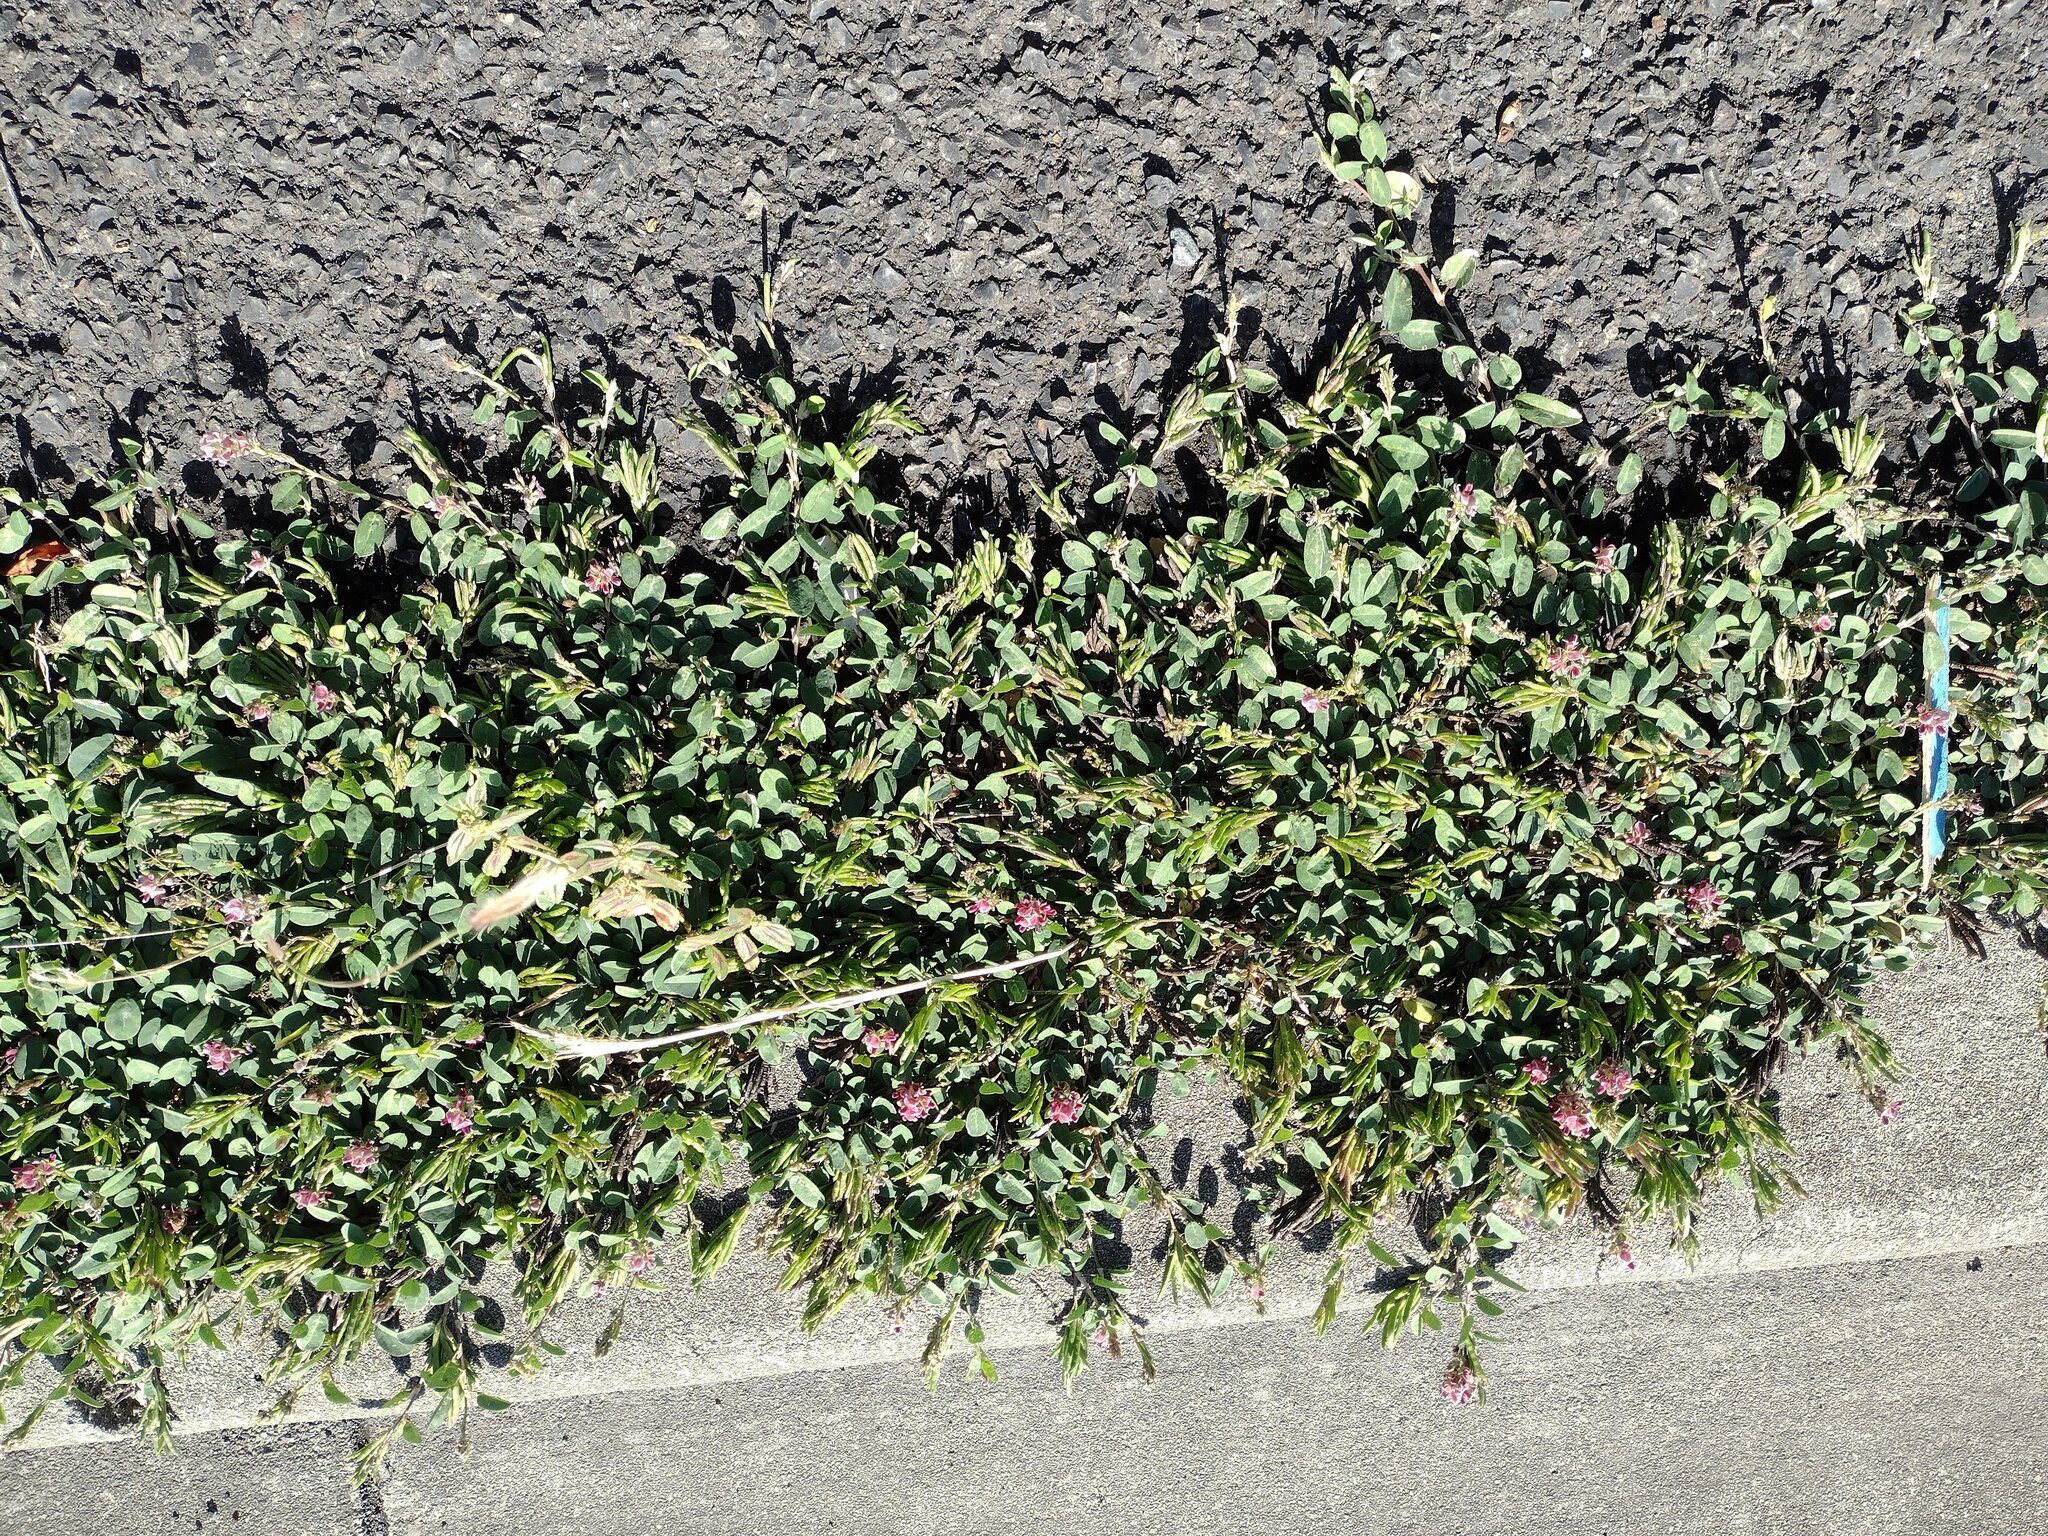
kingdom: Plantae
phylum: Tracheophyta
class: Magnoliopsida
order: Fabales
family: Fabaceae
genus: Alysicarpus
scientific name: Alysicarpus vaginalis
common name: White moneywort
